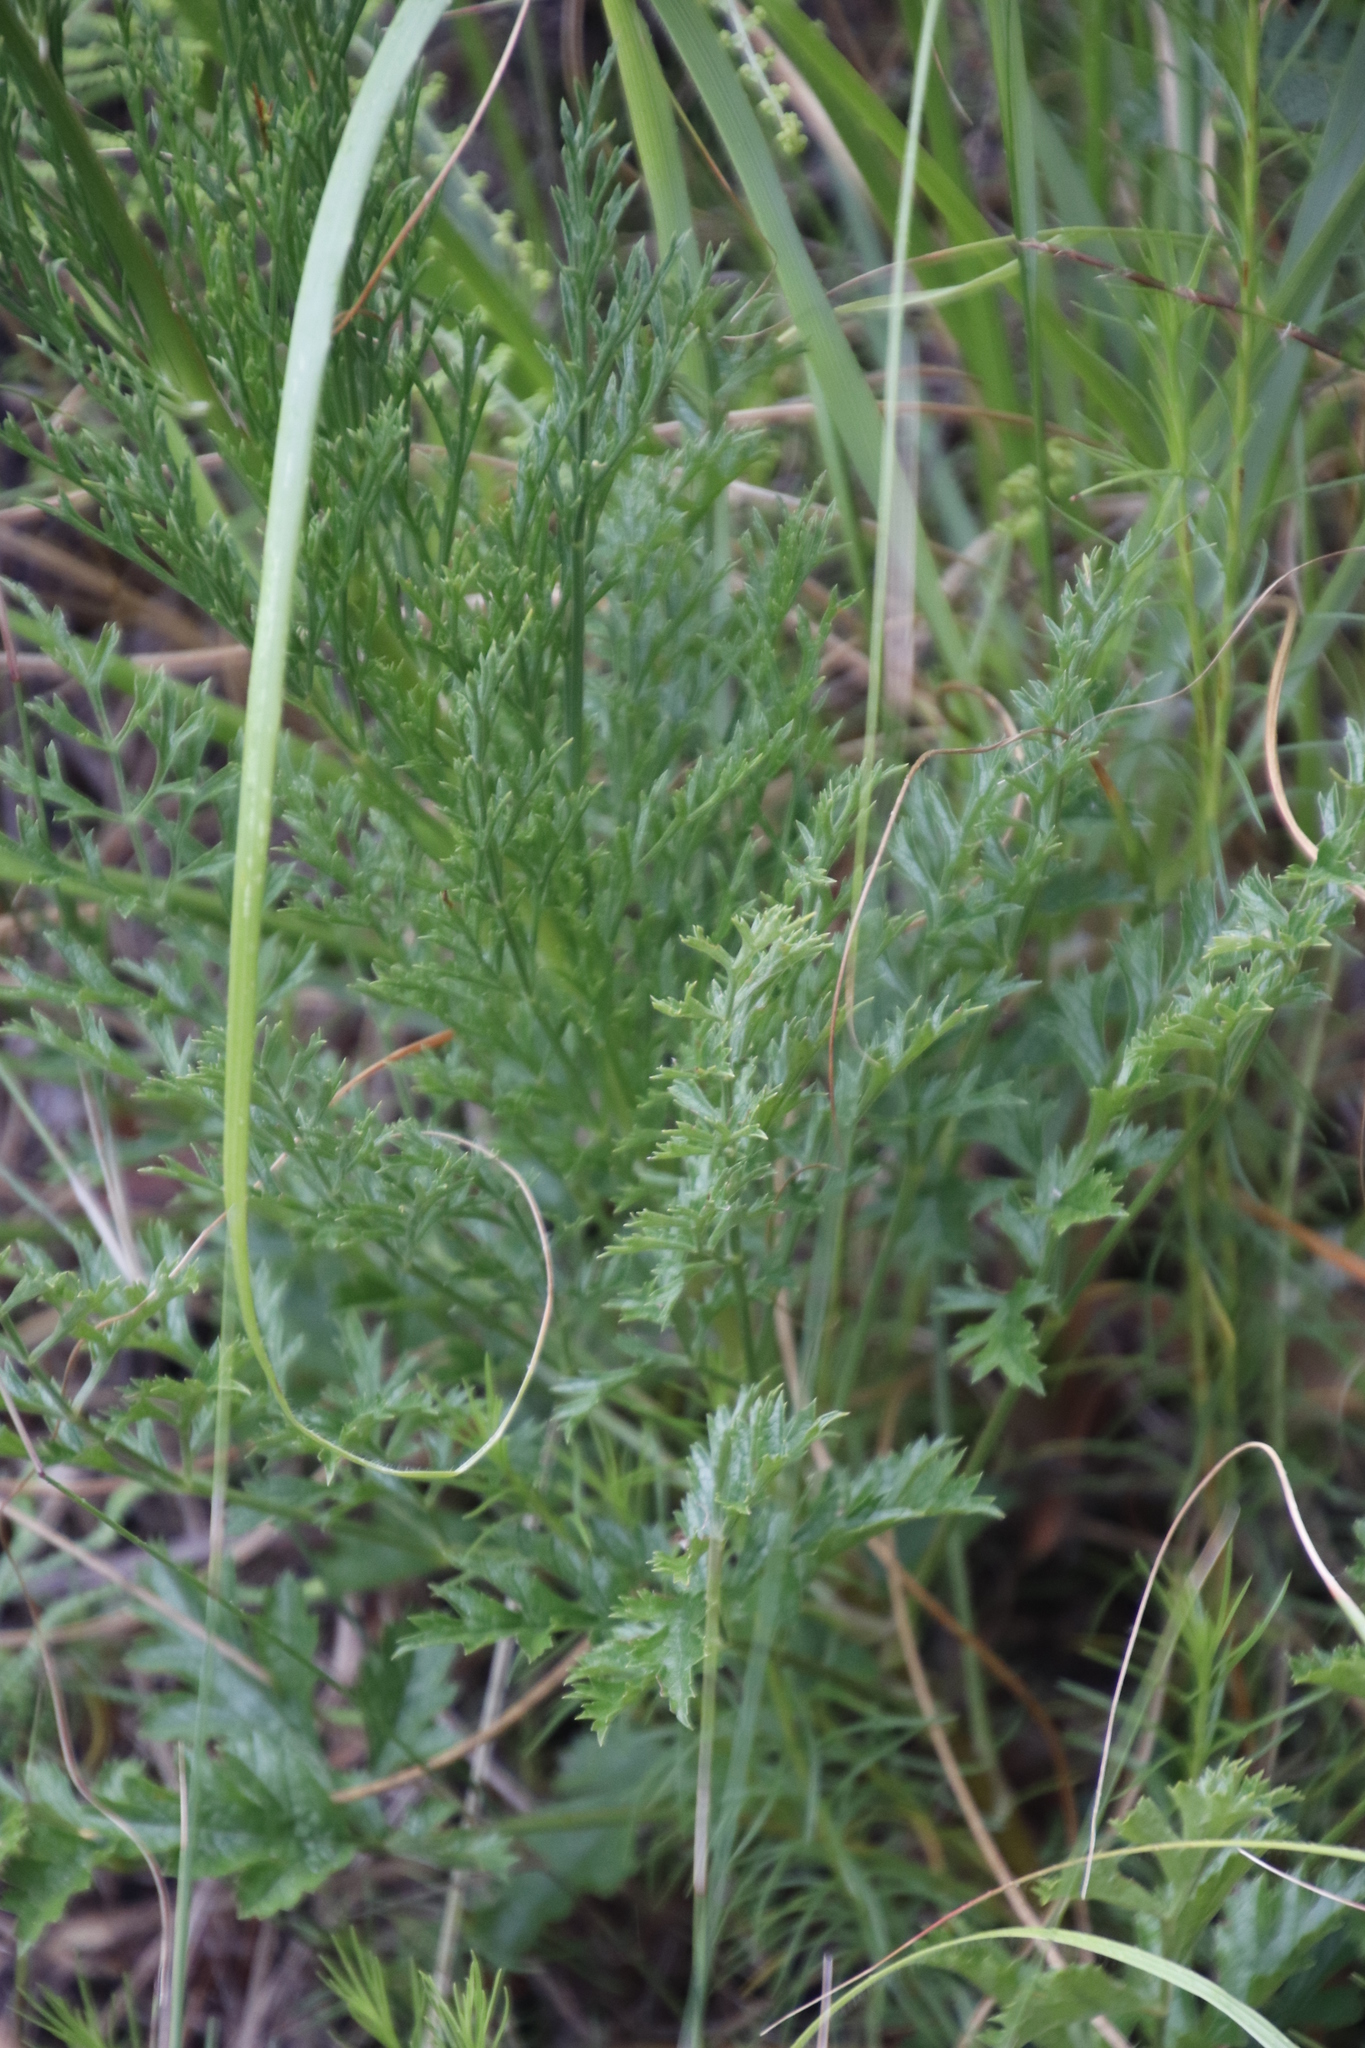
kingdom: Plantae
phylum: Tracheophyta
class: Magnoliopsida
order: Apiales
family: Apiaceae
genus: Notobubon
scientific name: Notobubon ferulaceum
